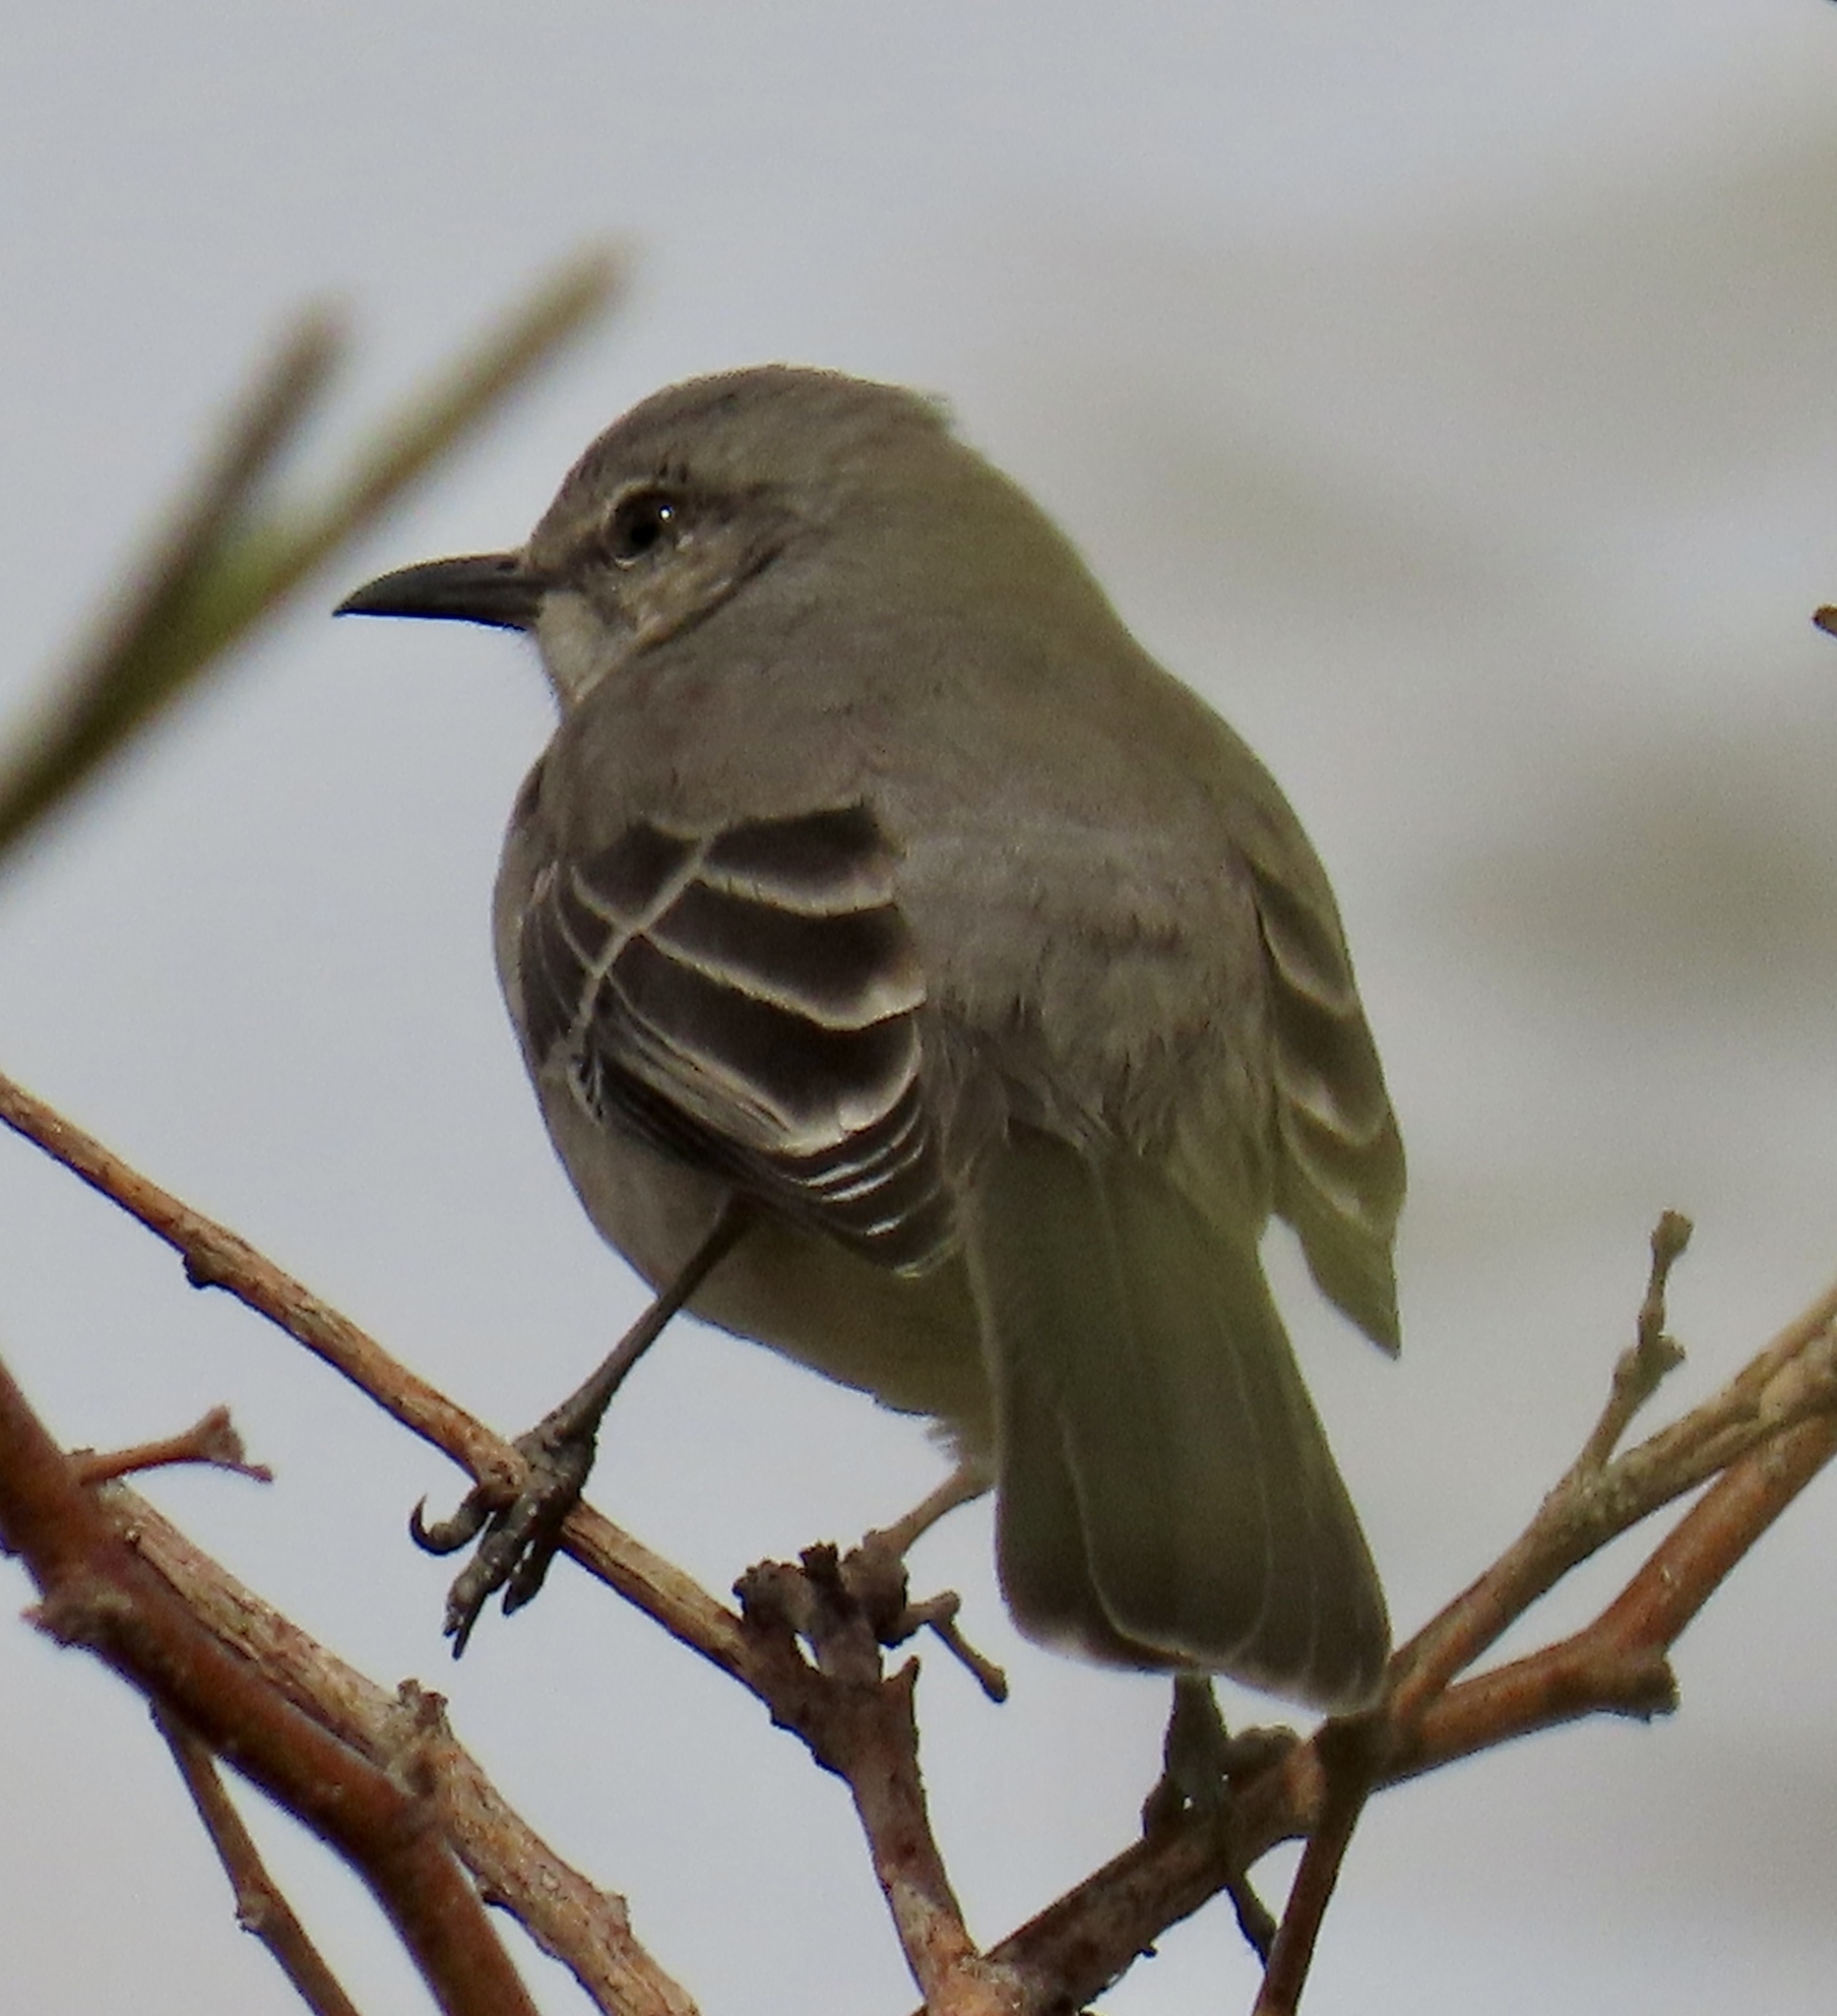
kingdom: Animalia
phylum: Chordata
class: Aves
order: Passeriformes
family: Mimidae
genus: Mimus
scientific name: Mimus polyglottos
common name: Northern mockingbird
